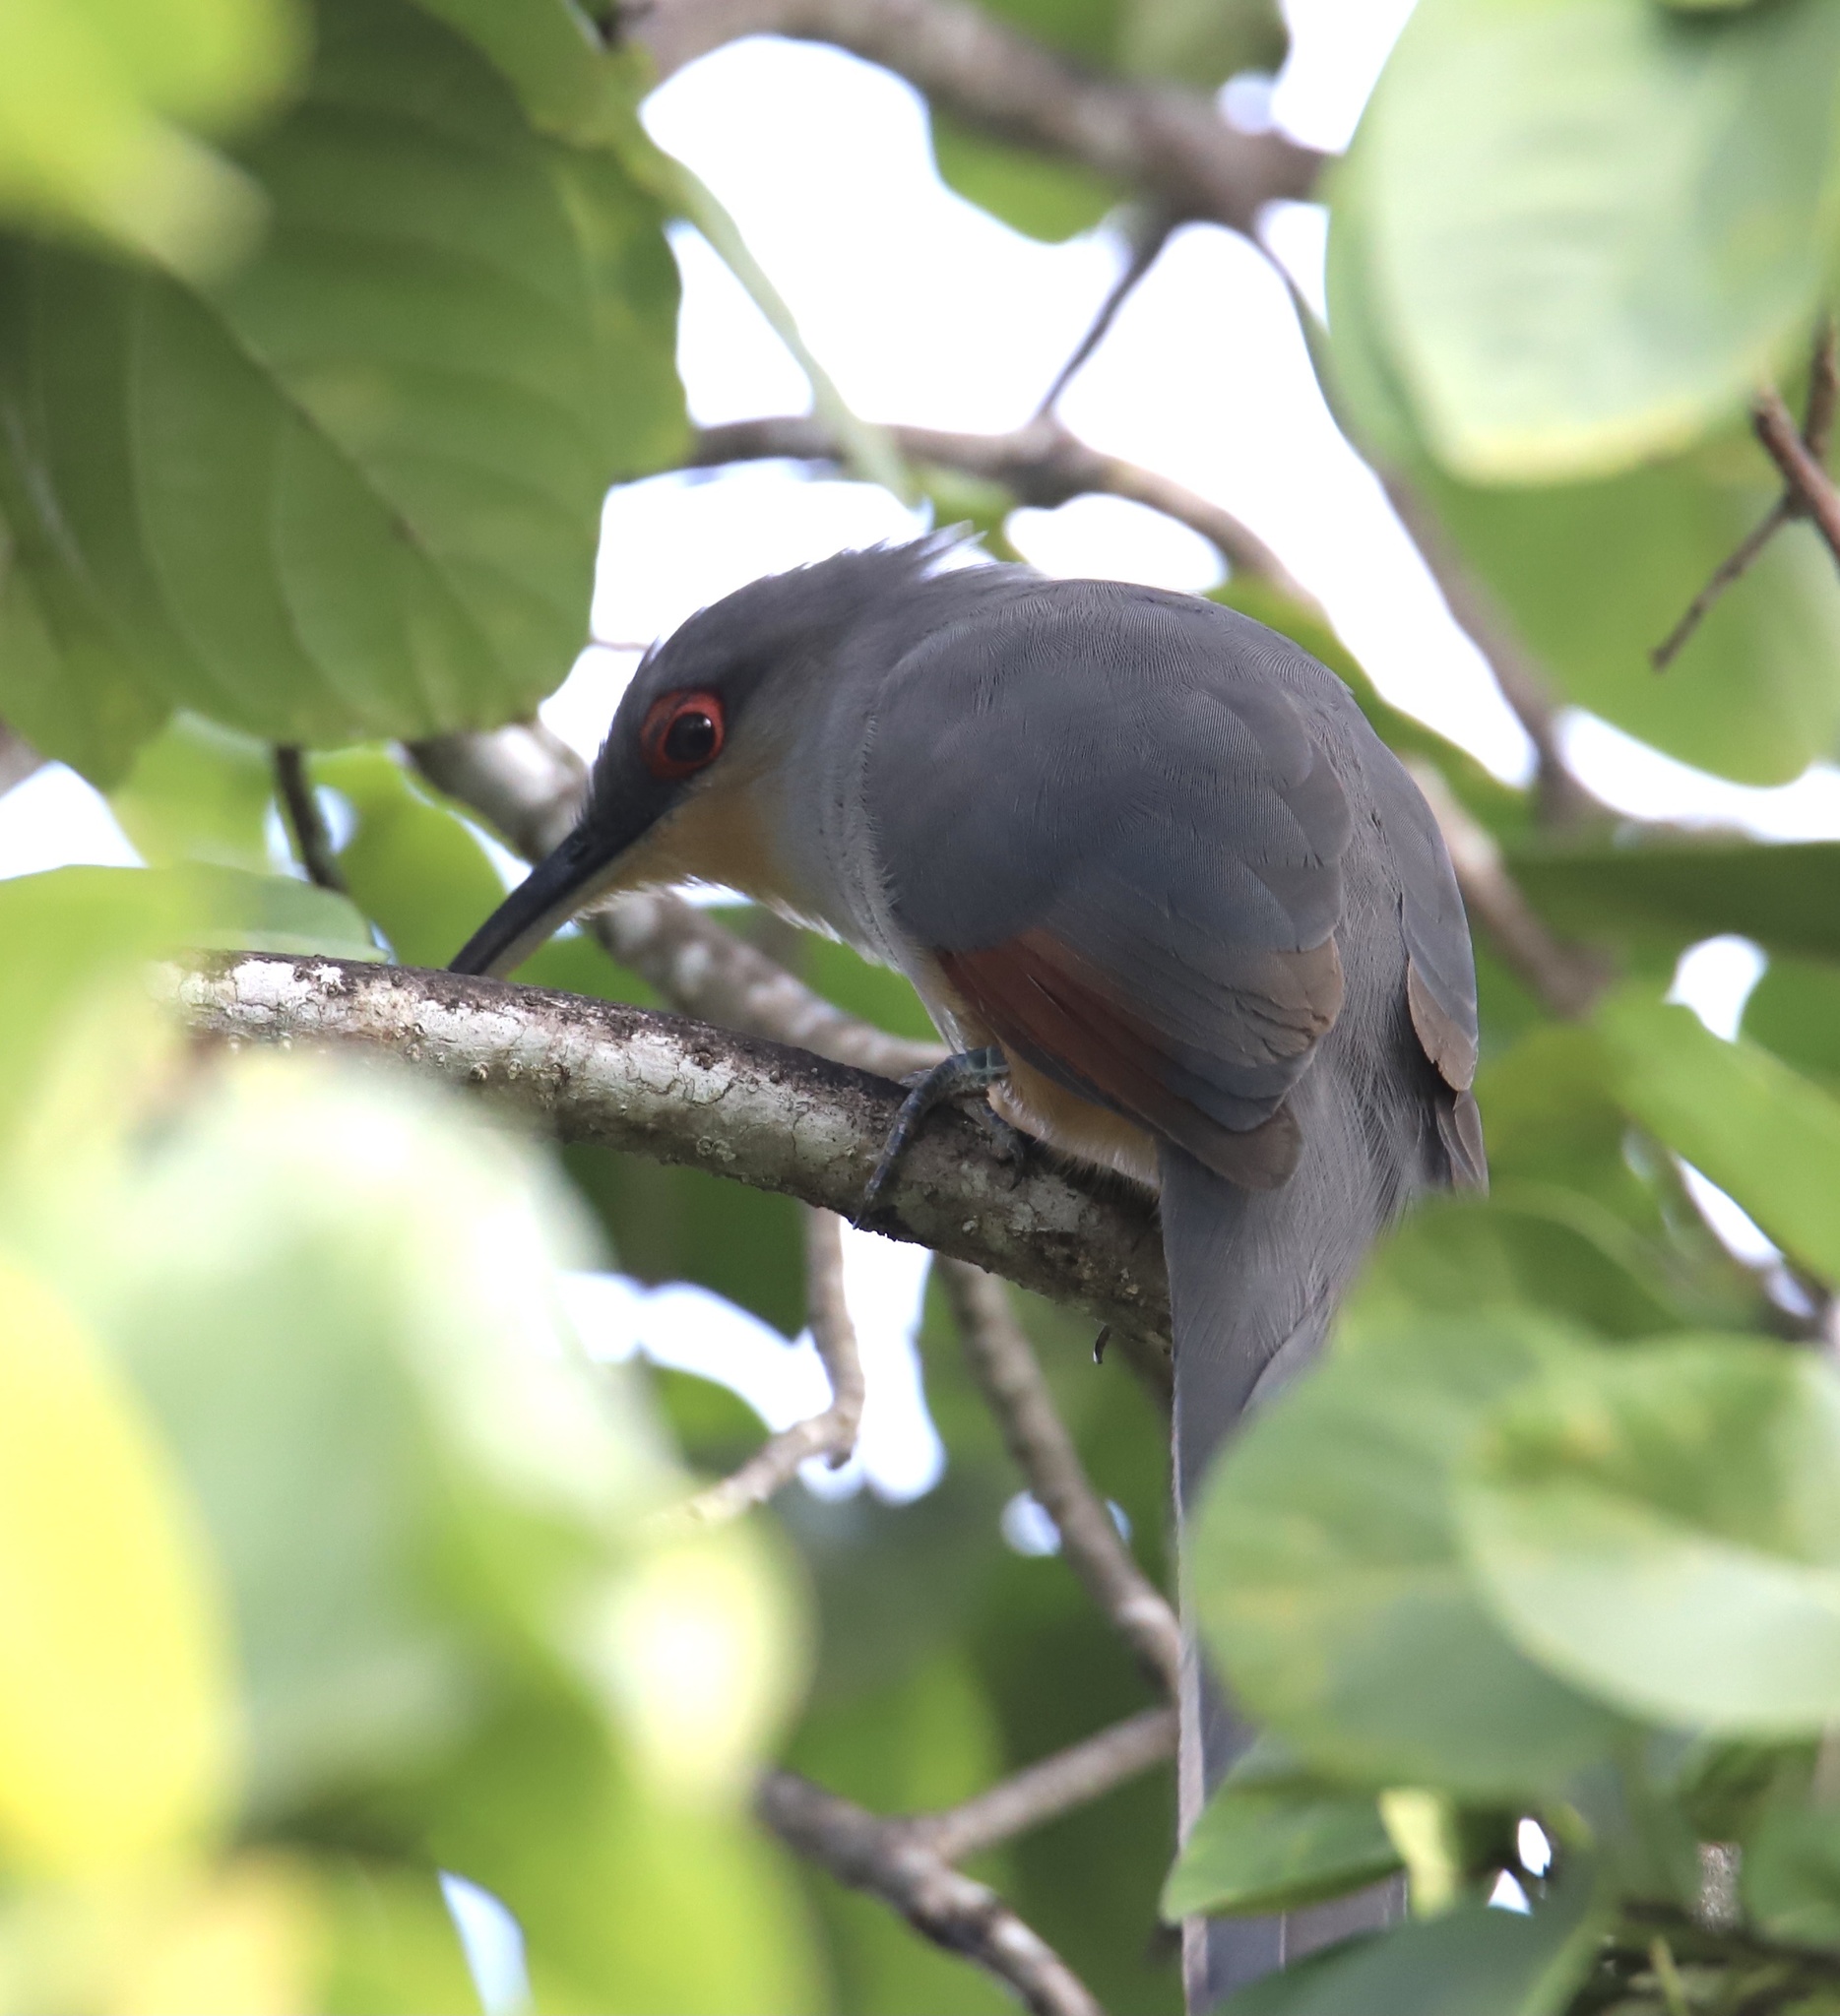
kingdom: Animalia
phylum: Chordata
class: Aves
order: Cuculiformes
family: Cuculidae
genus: Saurothera
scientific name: Saurothera longirostris
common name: Hispaniolan lizard-cuckoo
